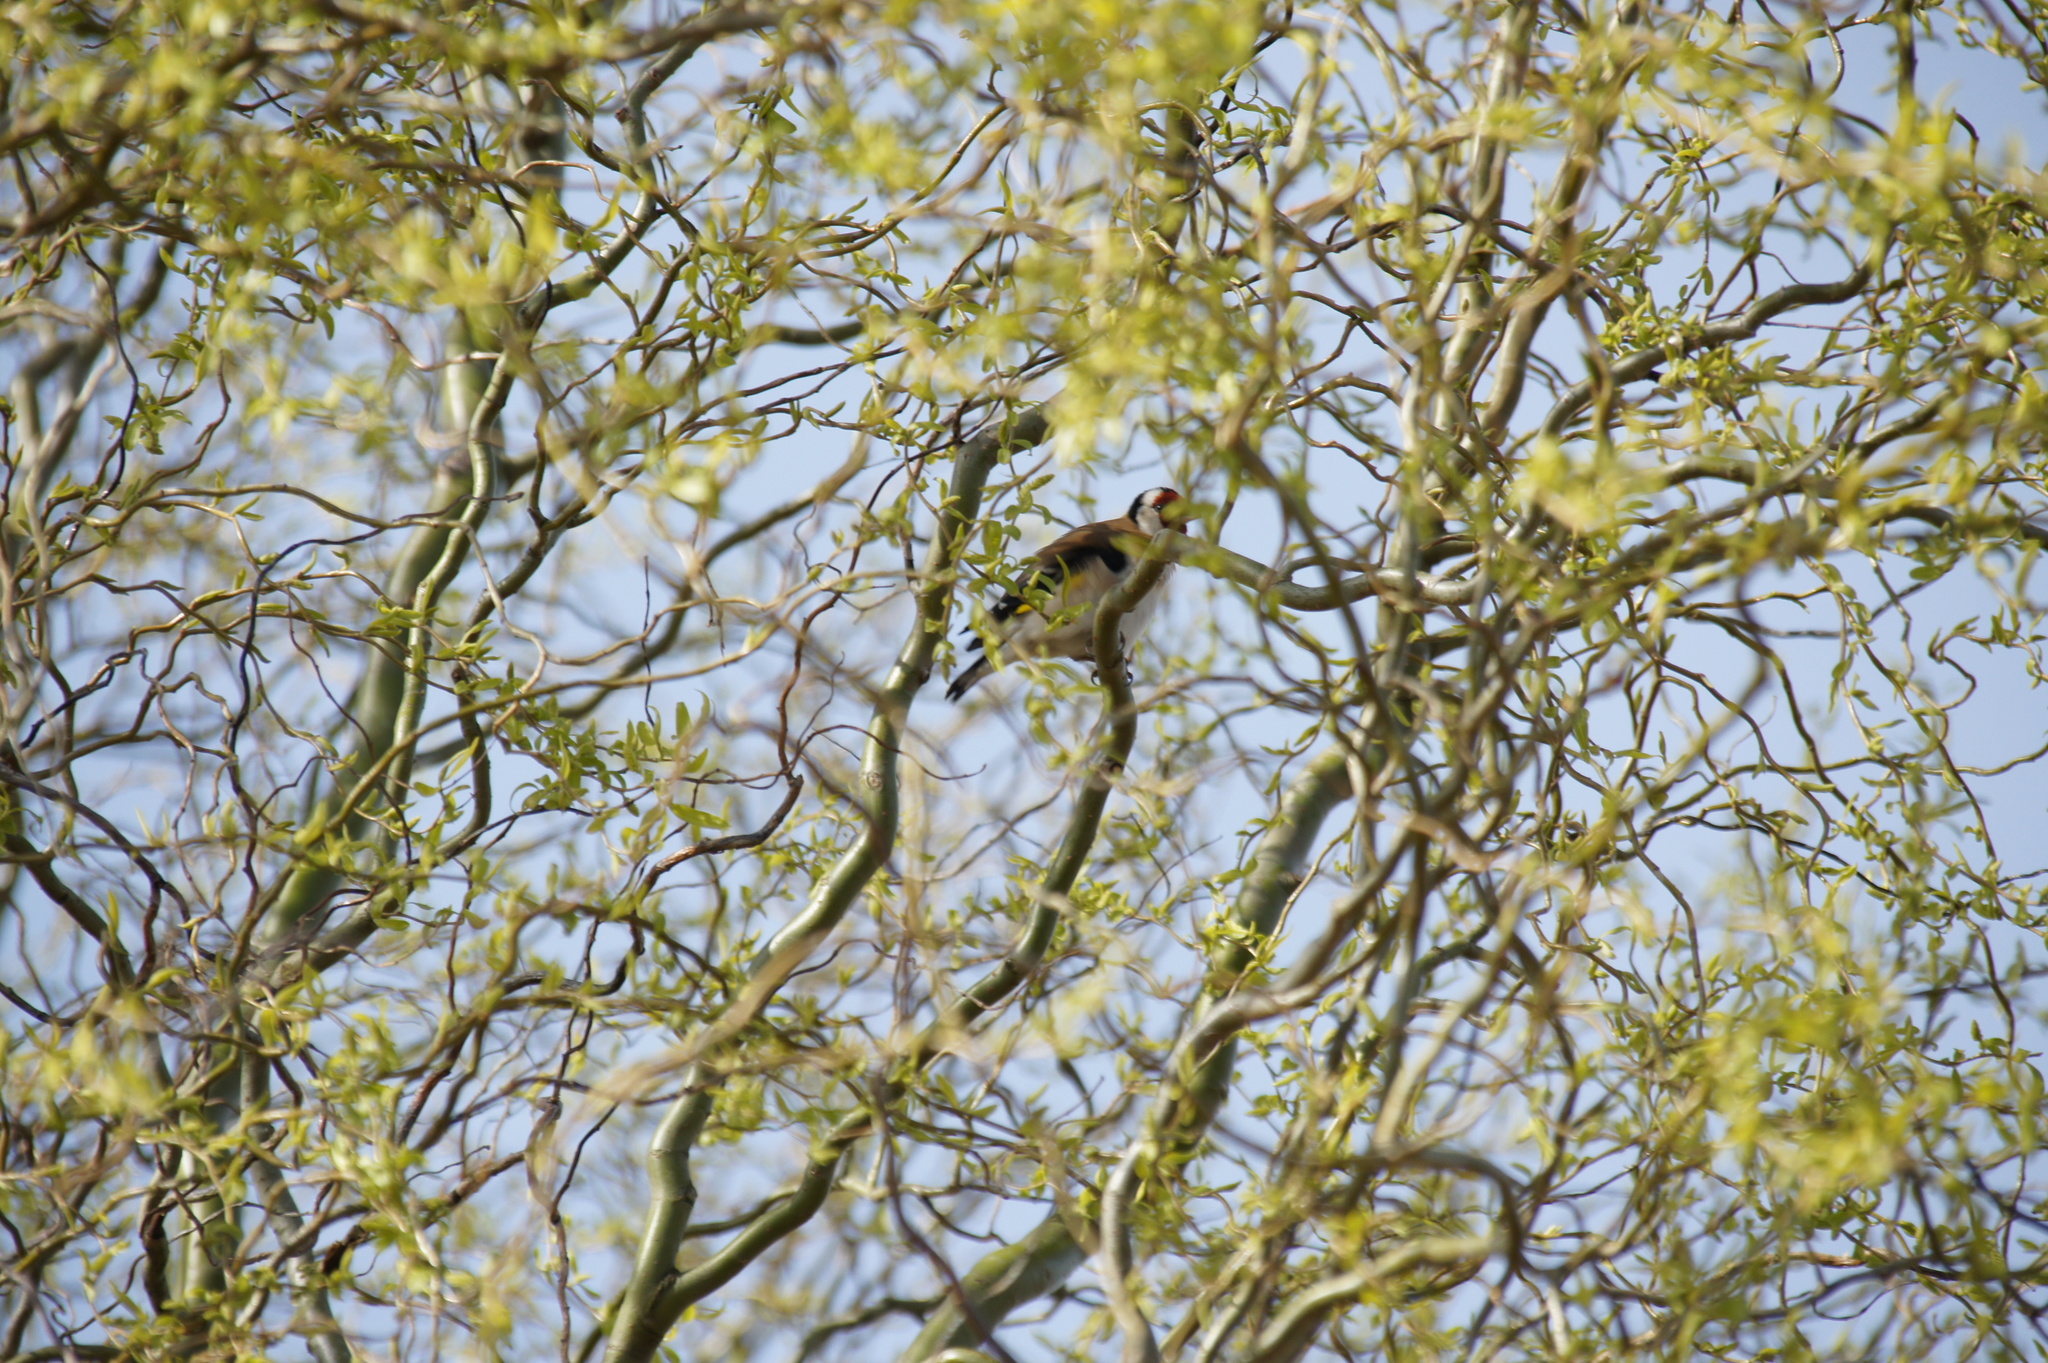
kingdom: Animalia
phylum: Chordata
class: Aves
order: Passeriformes
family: Fringillidae
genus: Carduelis
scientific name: Carduelis carduelis
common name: European goldfinch
